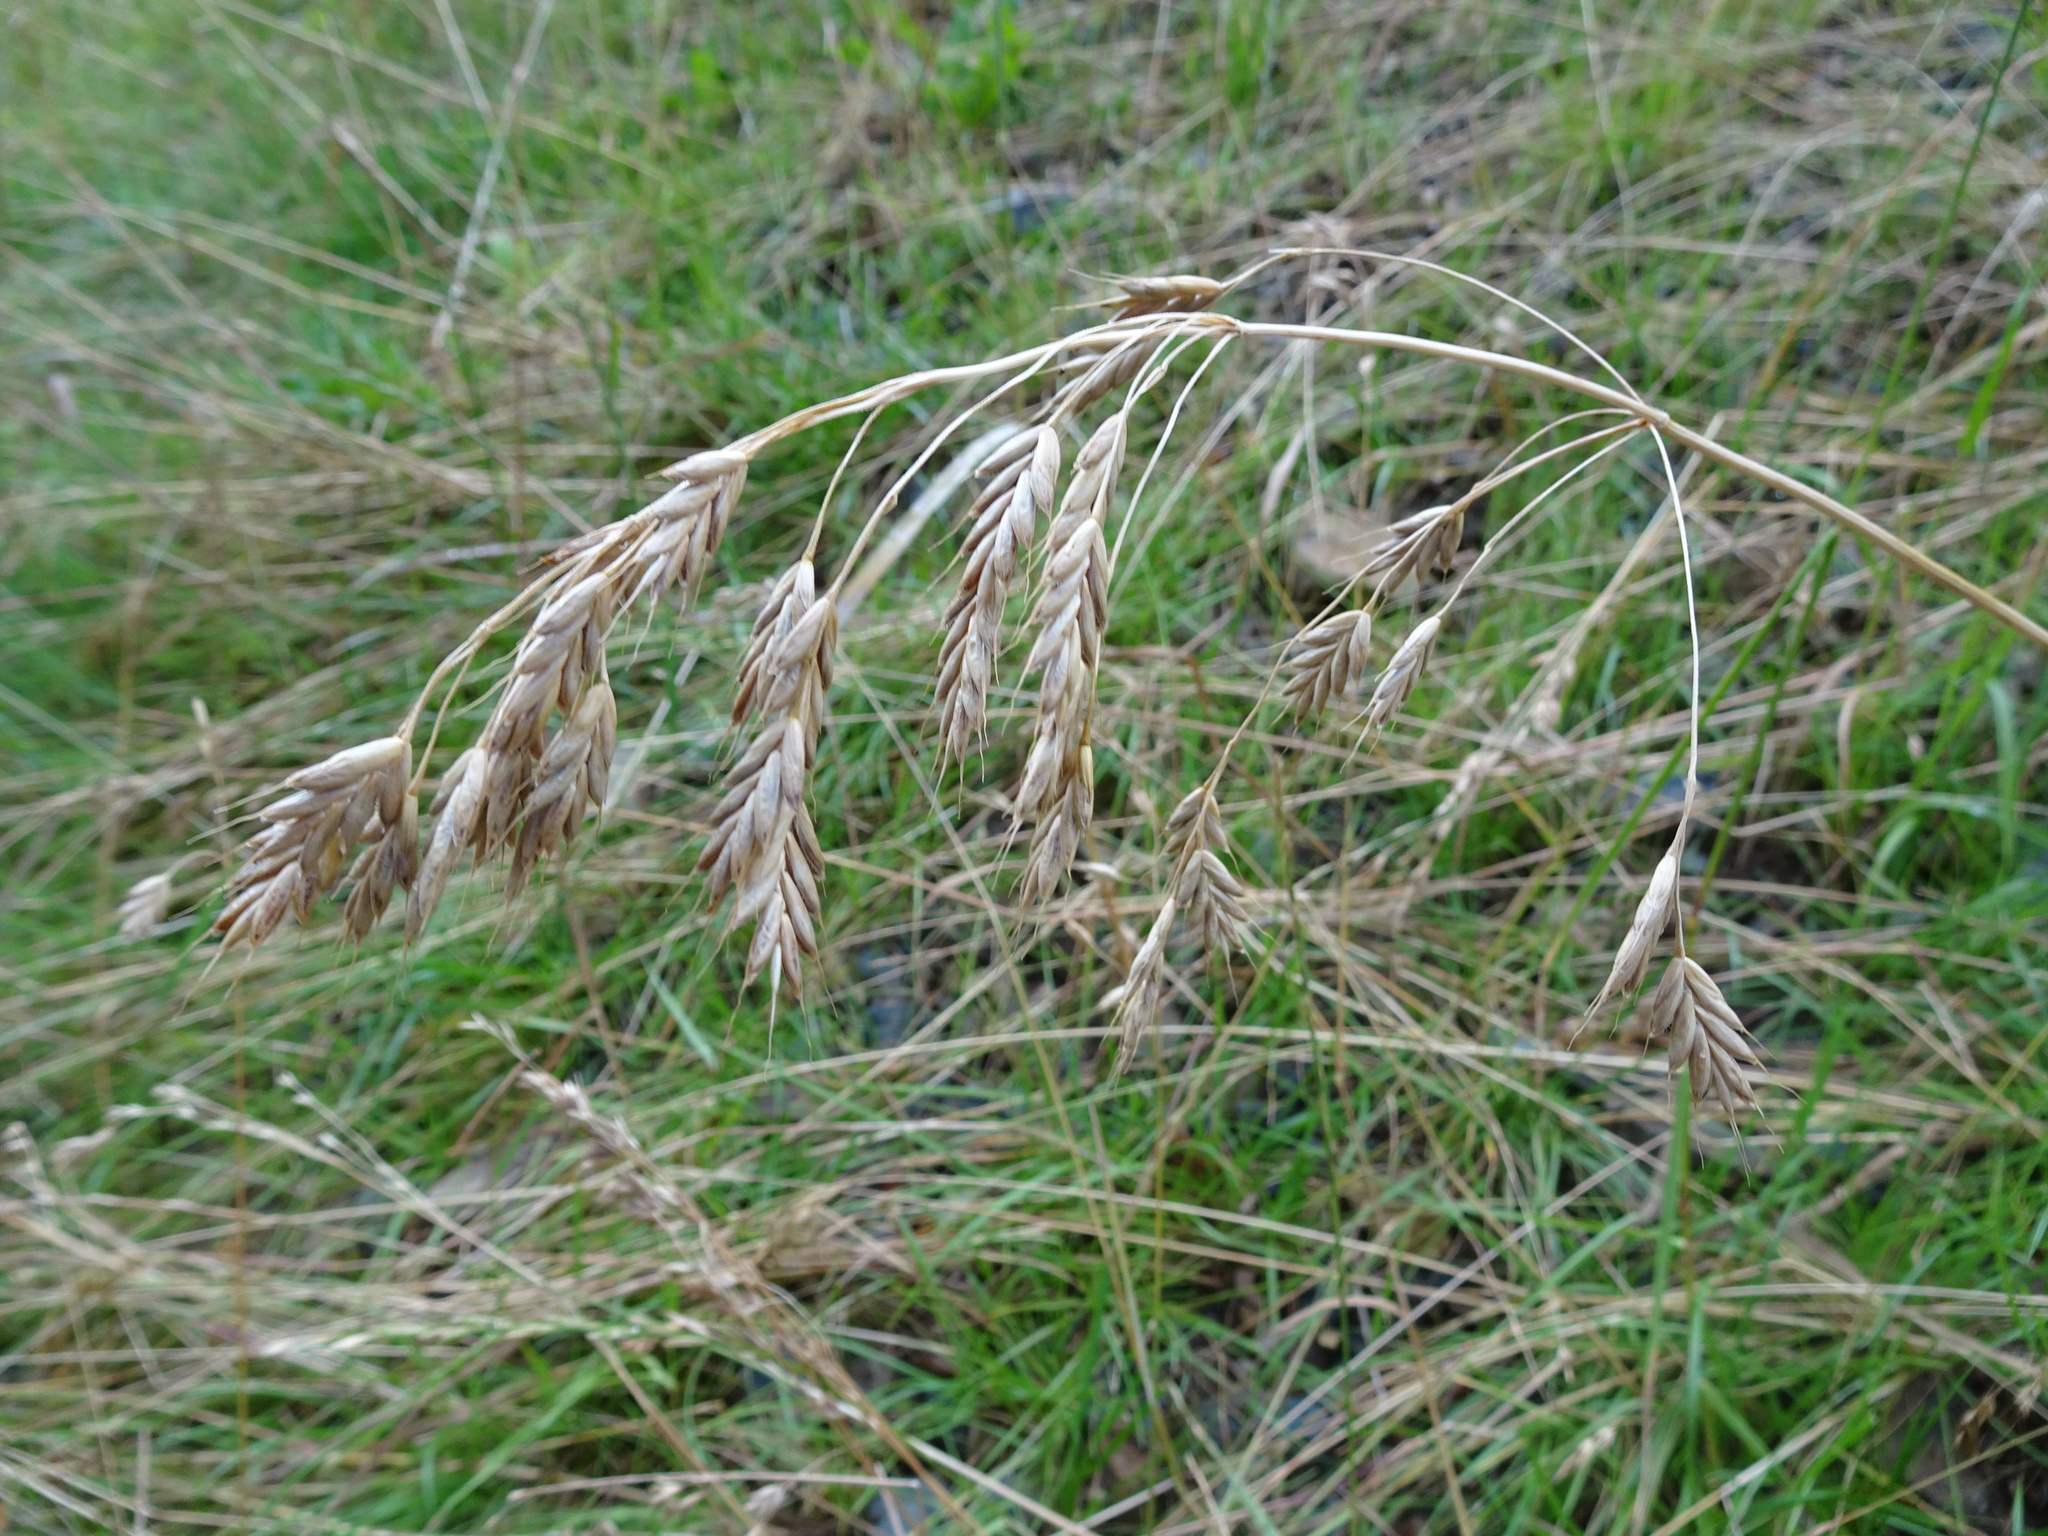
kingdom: Plantae
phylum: Tracheophyta
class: Liliopsida
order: Poales
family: Poaceae
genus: Bromus
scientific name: Bromus secalinus
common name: Rye brome
